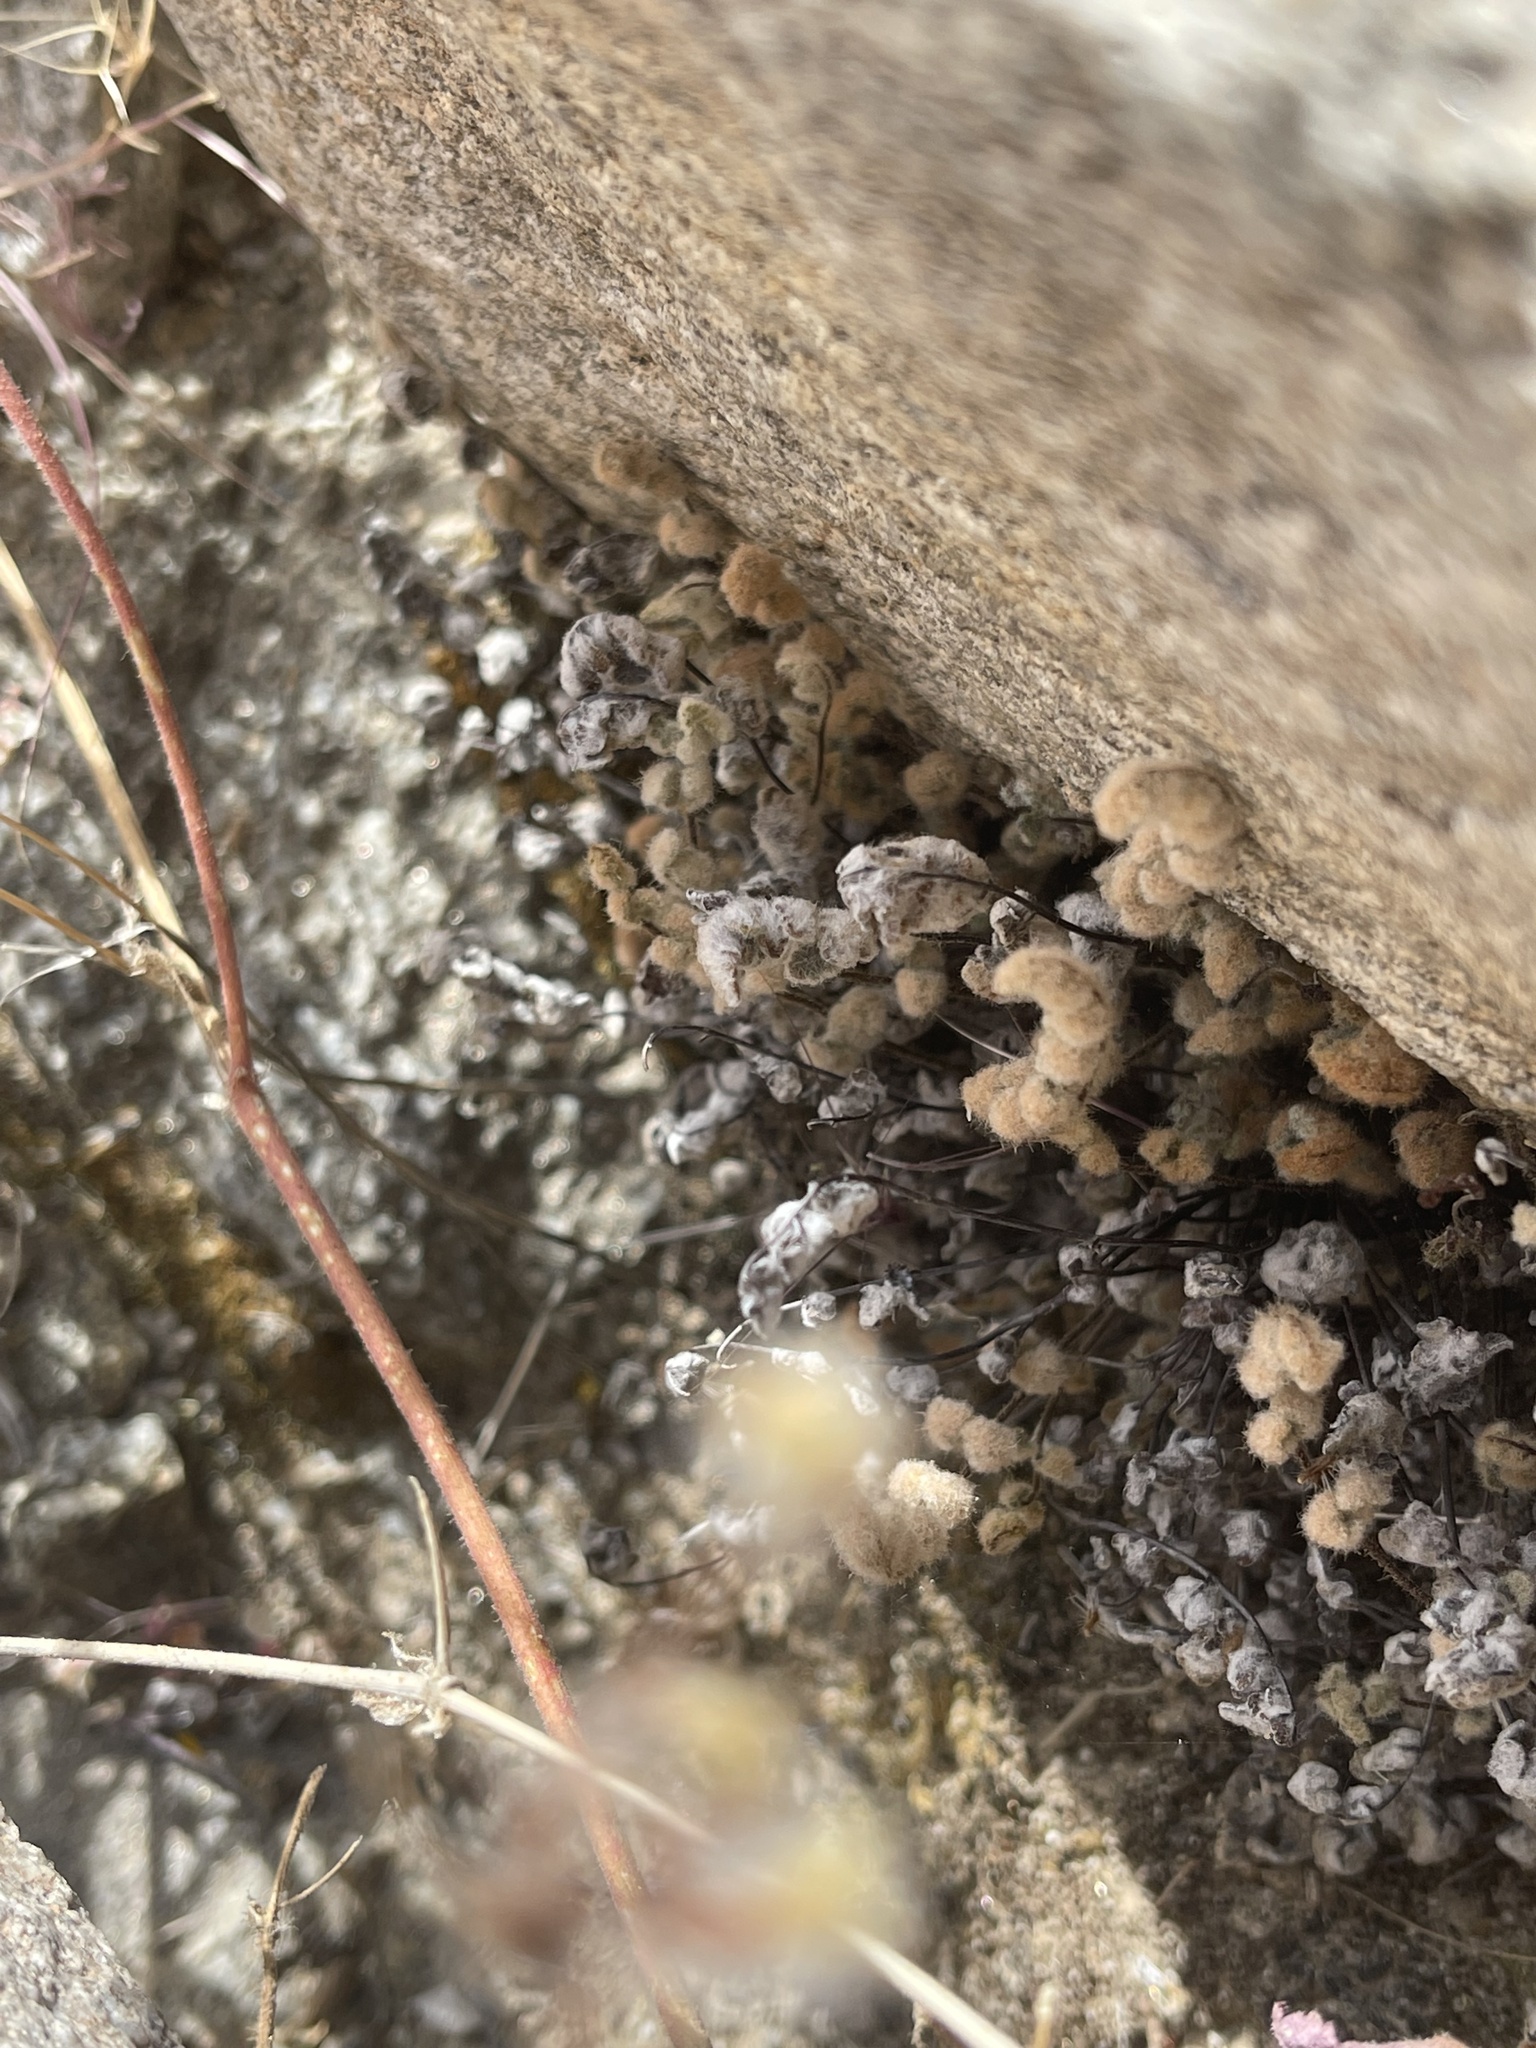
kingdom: Plantae
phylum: Tracheophyta
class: Polypodiopsida
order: Polypodiales
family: Pteridaceae
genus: Myriopteris
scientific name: Myriopteris parryi
